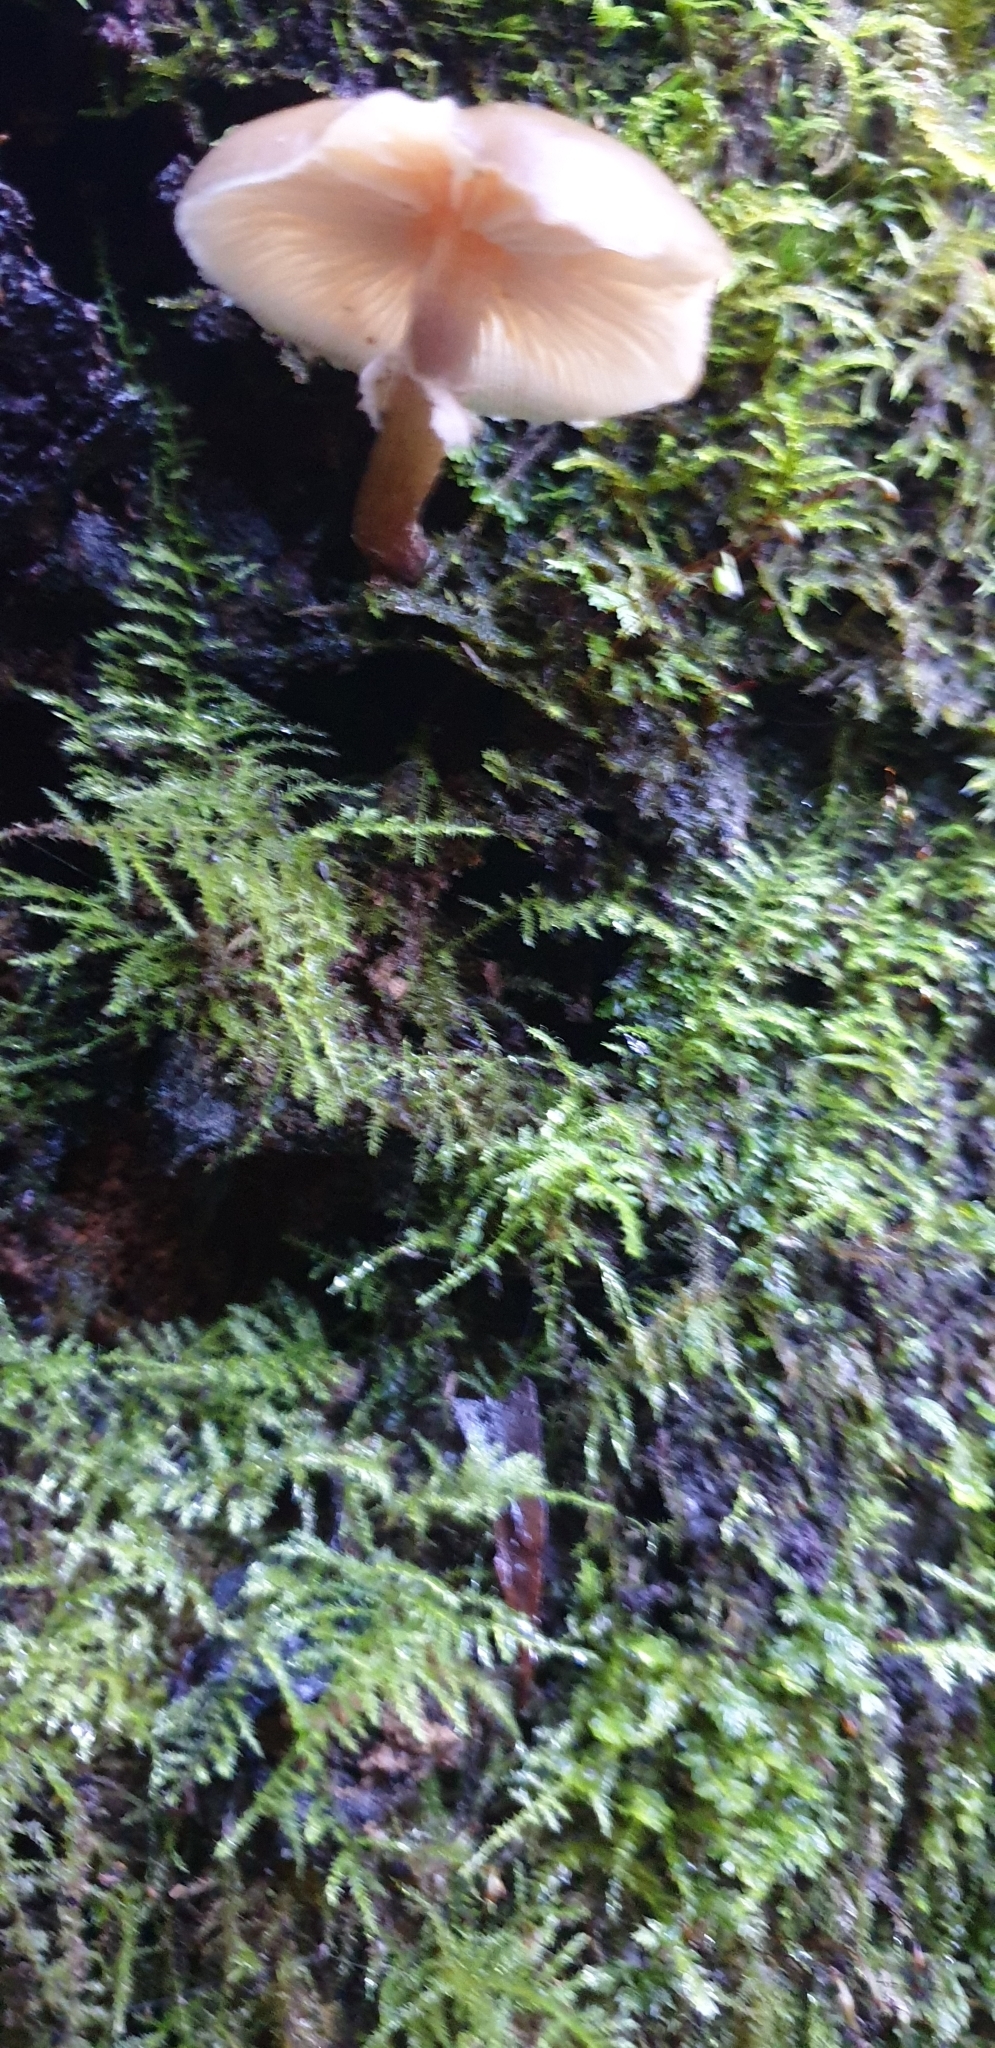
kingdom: Fungi
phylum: Basidiomycota
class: Agaricomycetes
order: Agaricales
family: Physalacriaceae
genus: Armillaria
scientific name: Armillaria novae-zelandiae
